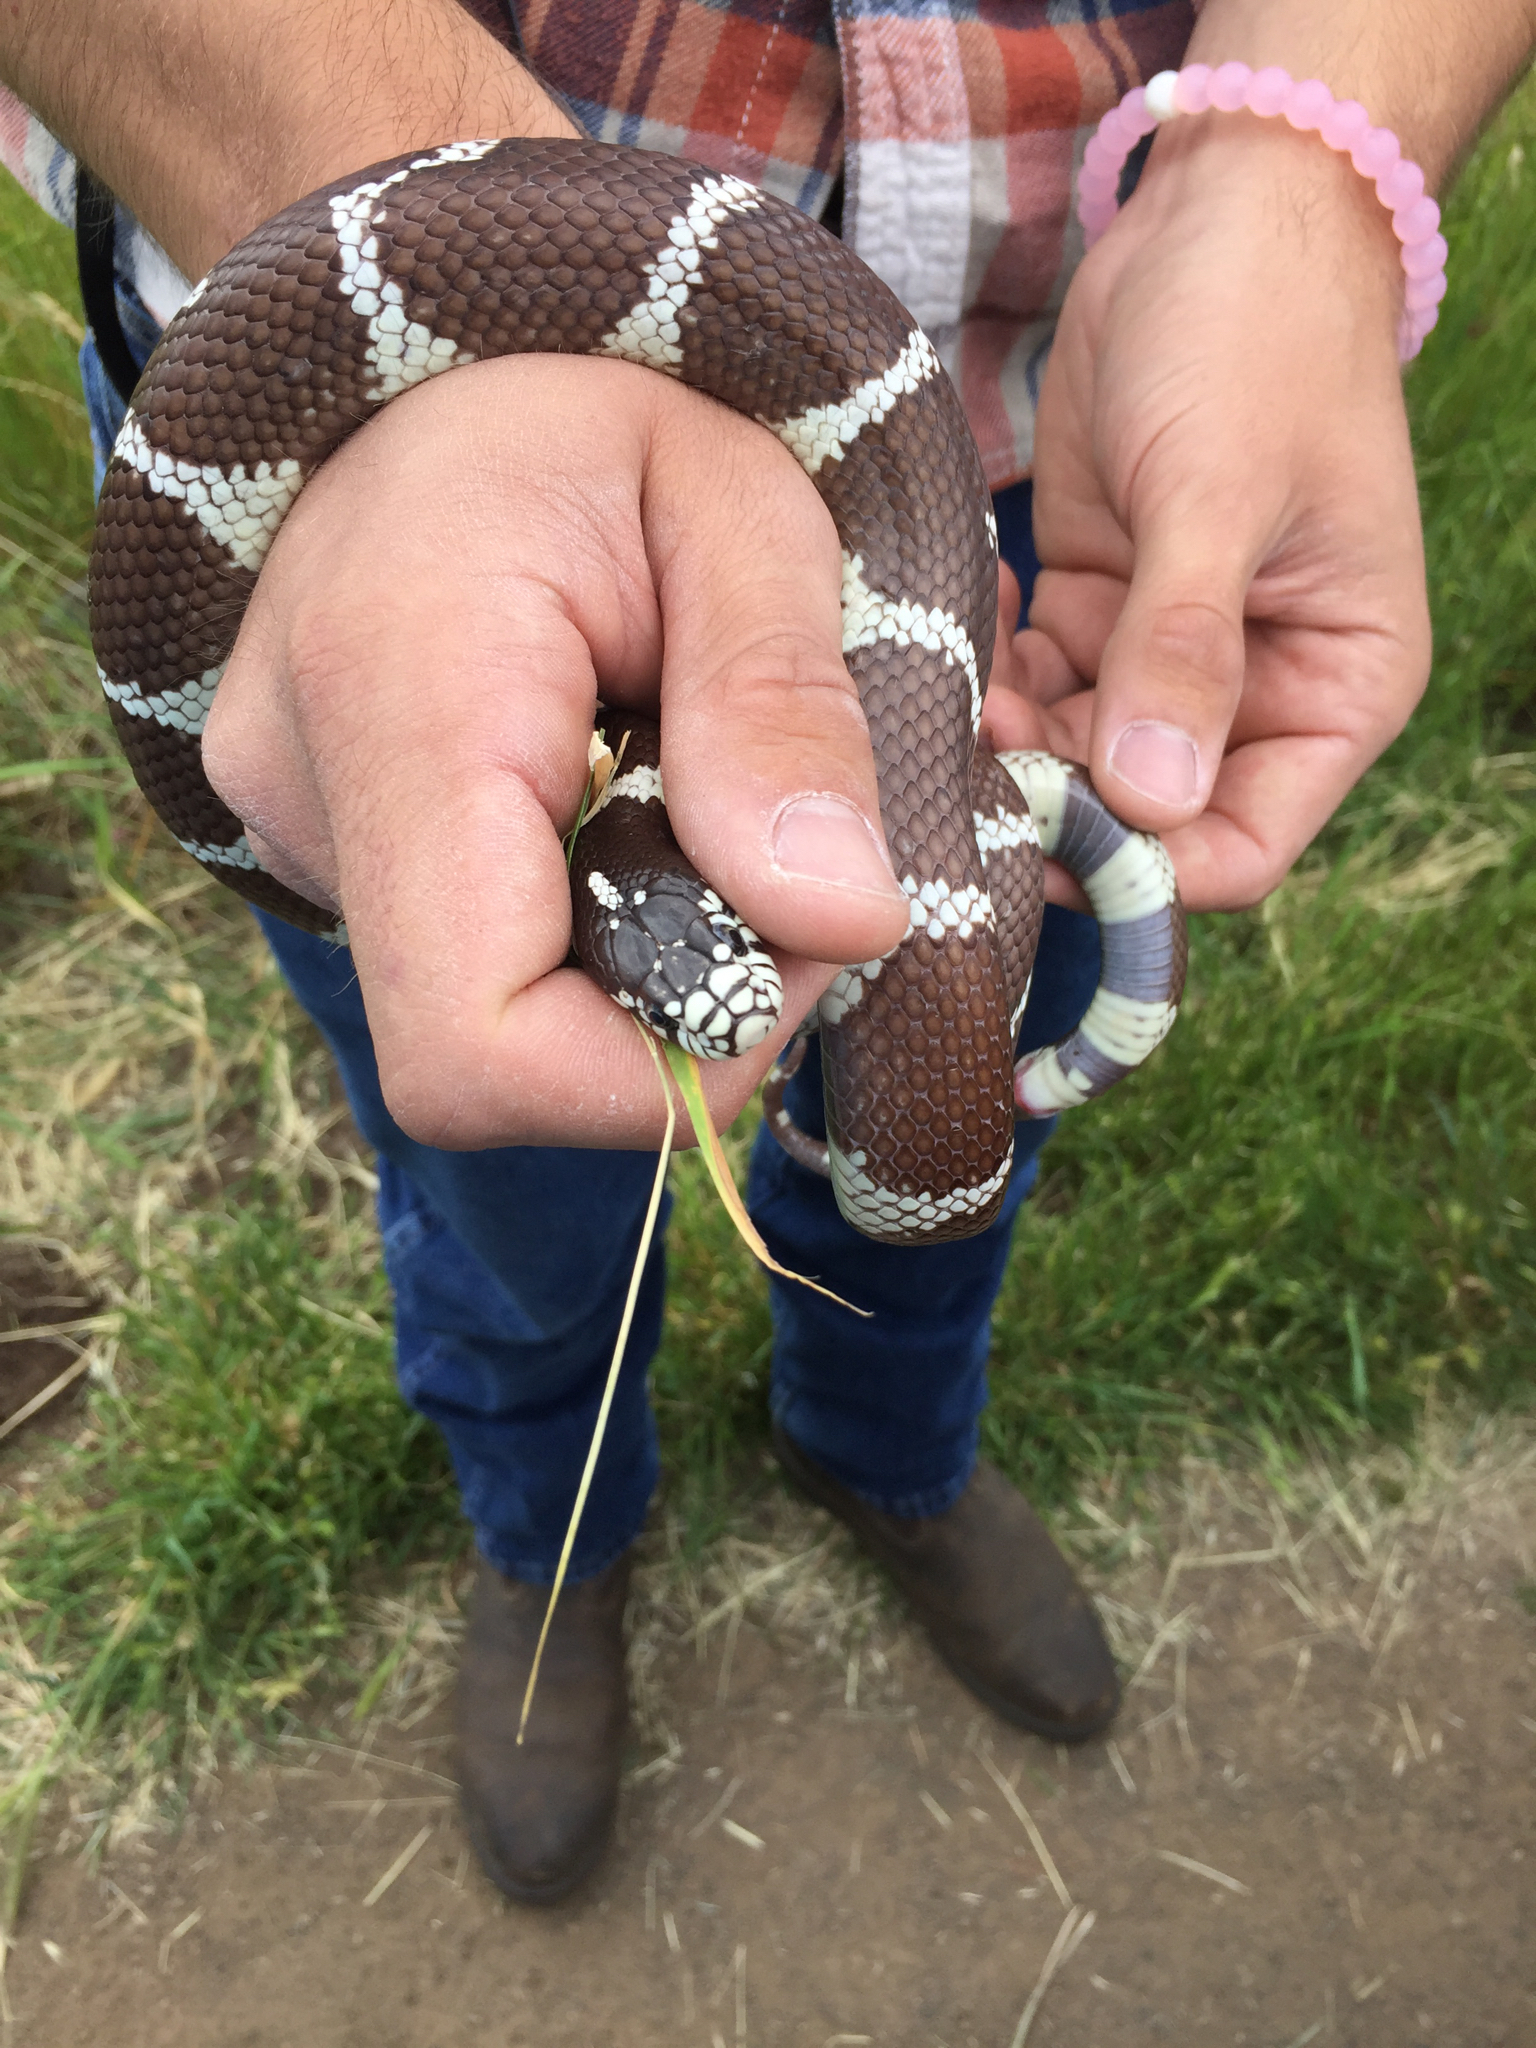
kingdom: Animalia
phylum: Chordata
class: Squamata
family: Colubridae
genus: Lampropeltis
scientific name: Lampropeltis californiae
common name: California kingsnake
